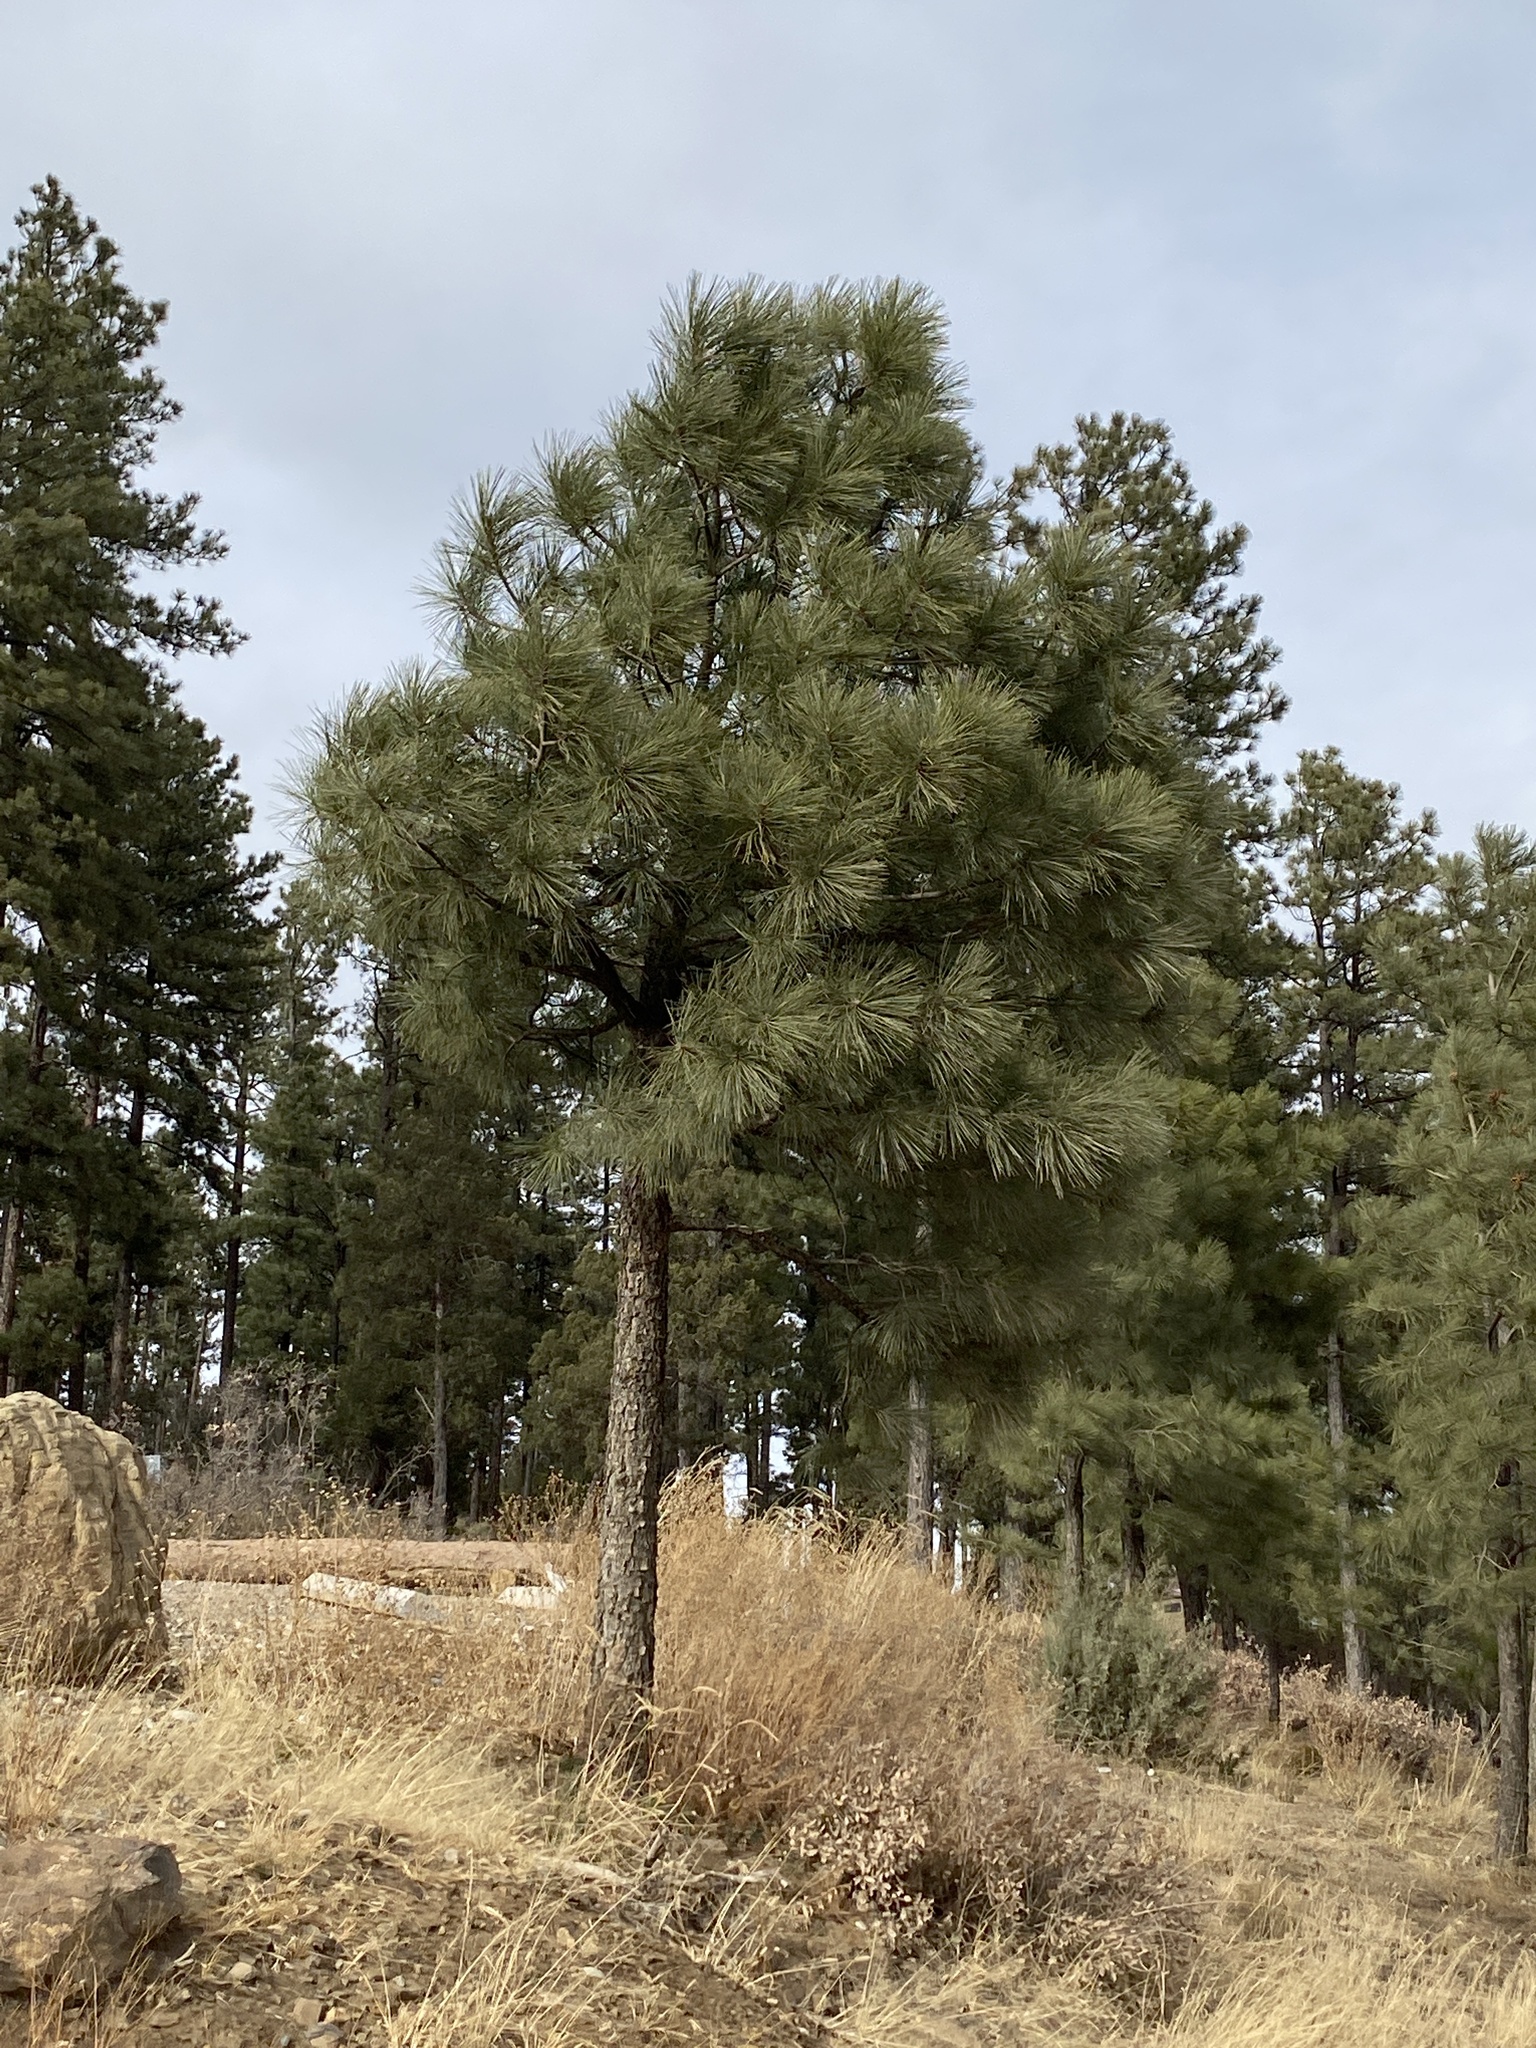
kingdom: Plantae
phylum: Tracheophyta
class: Pinopsida
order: Pinales
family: Pinaceae
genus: Pinus
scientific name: Pinus ponderosa
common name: Western yellow-pine
